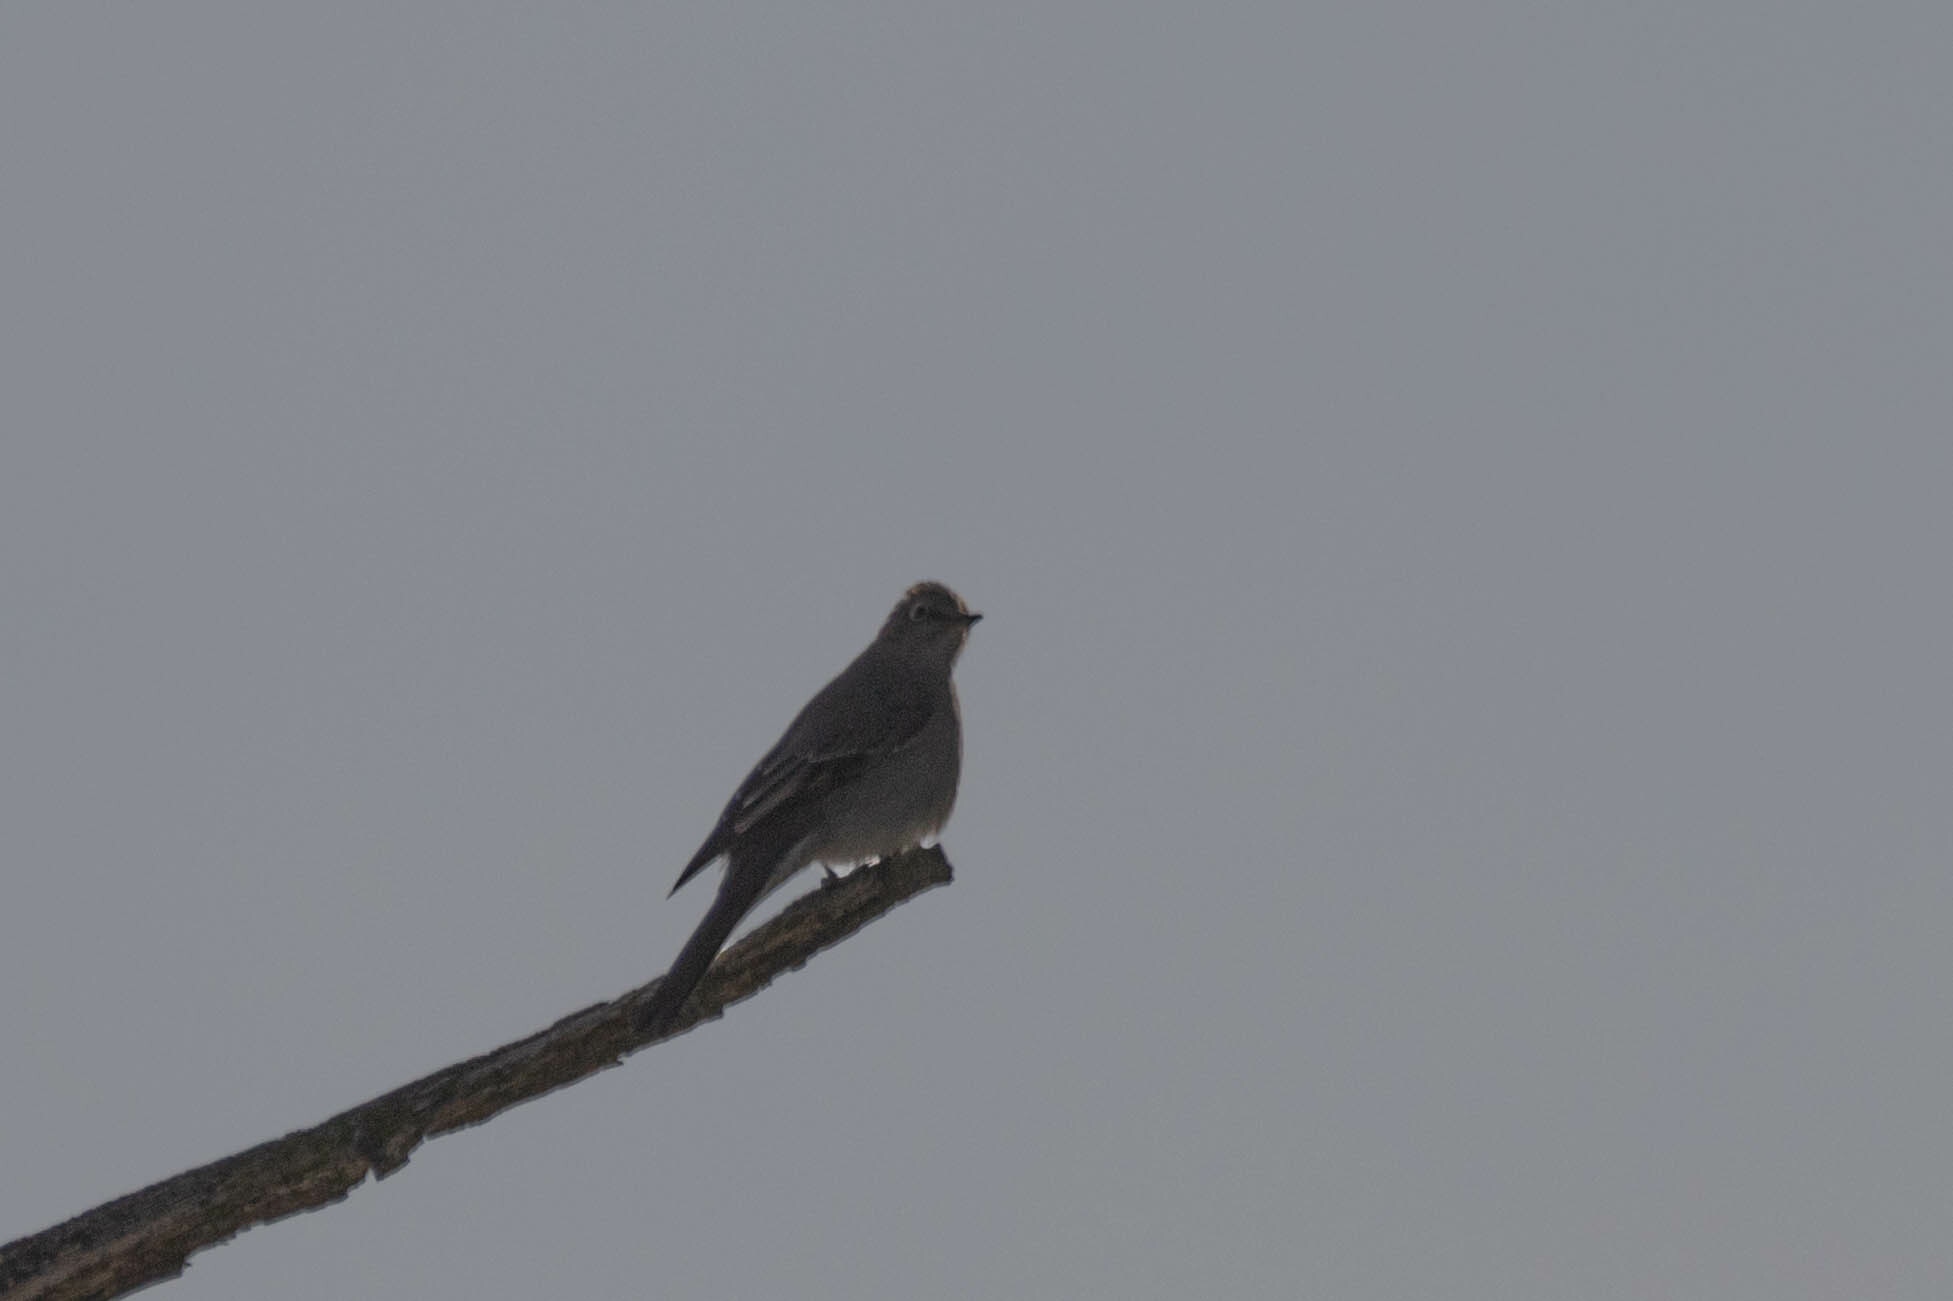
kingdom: Animalia
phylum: Chordata
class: Aves
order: Passeriformes
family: Turdidae
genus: Myadestes
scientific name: Myadestes townsendi
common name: Townsend's solitaire
